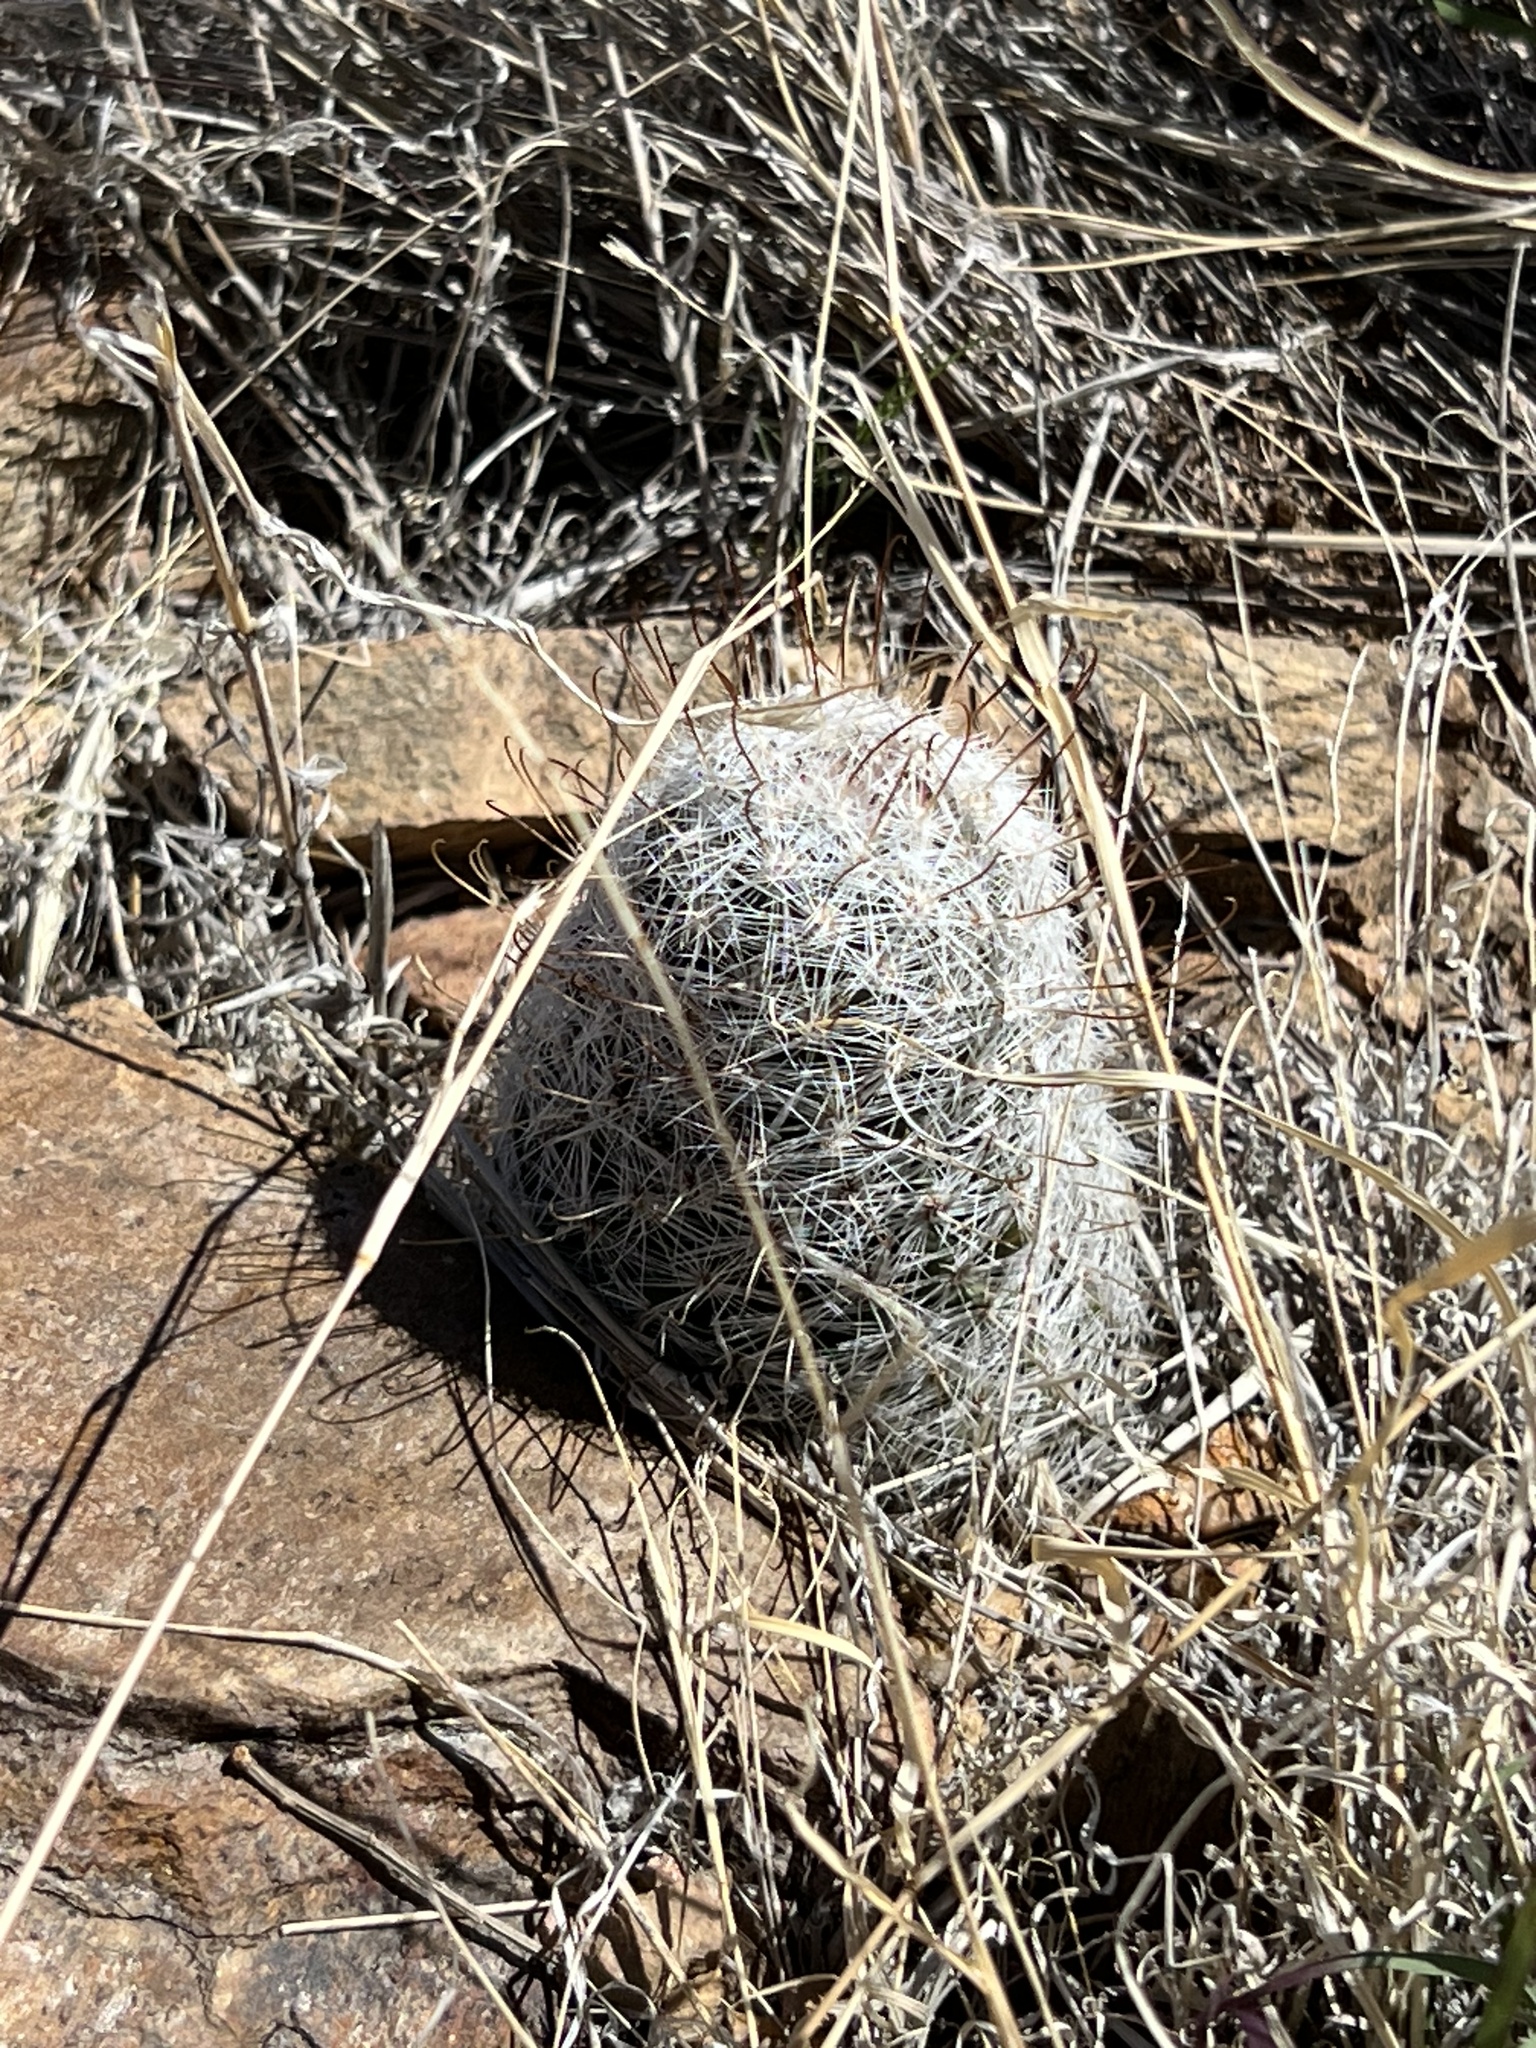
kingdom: Plantae
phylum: Tracheophyta
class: Magnoliopsida
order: Caryophyllales
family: Cactaceae
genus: Cochemiea
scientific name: Cochemiea grahamii
